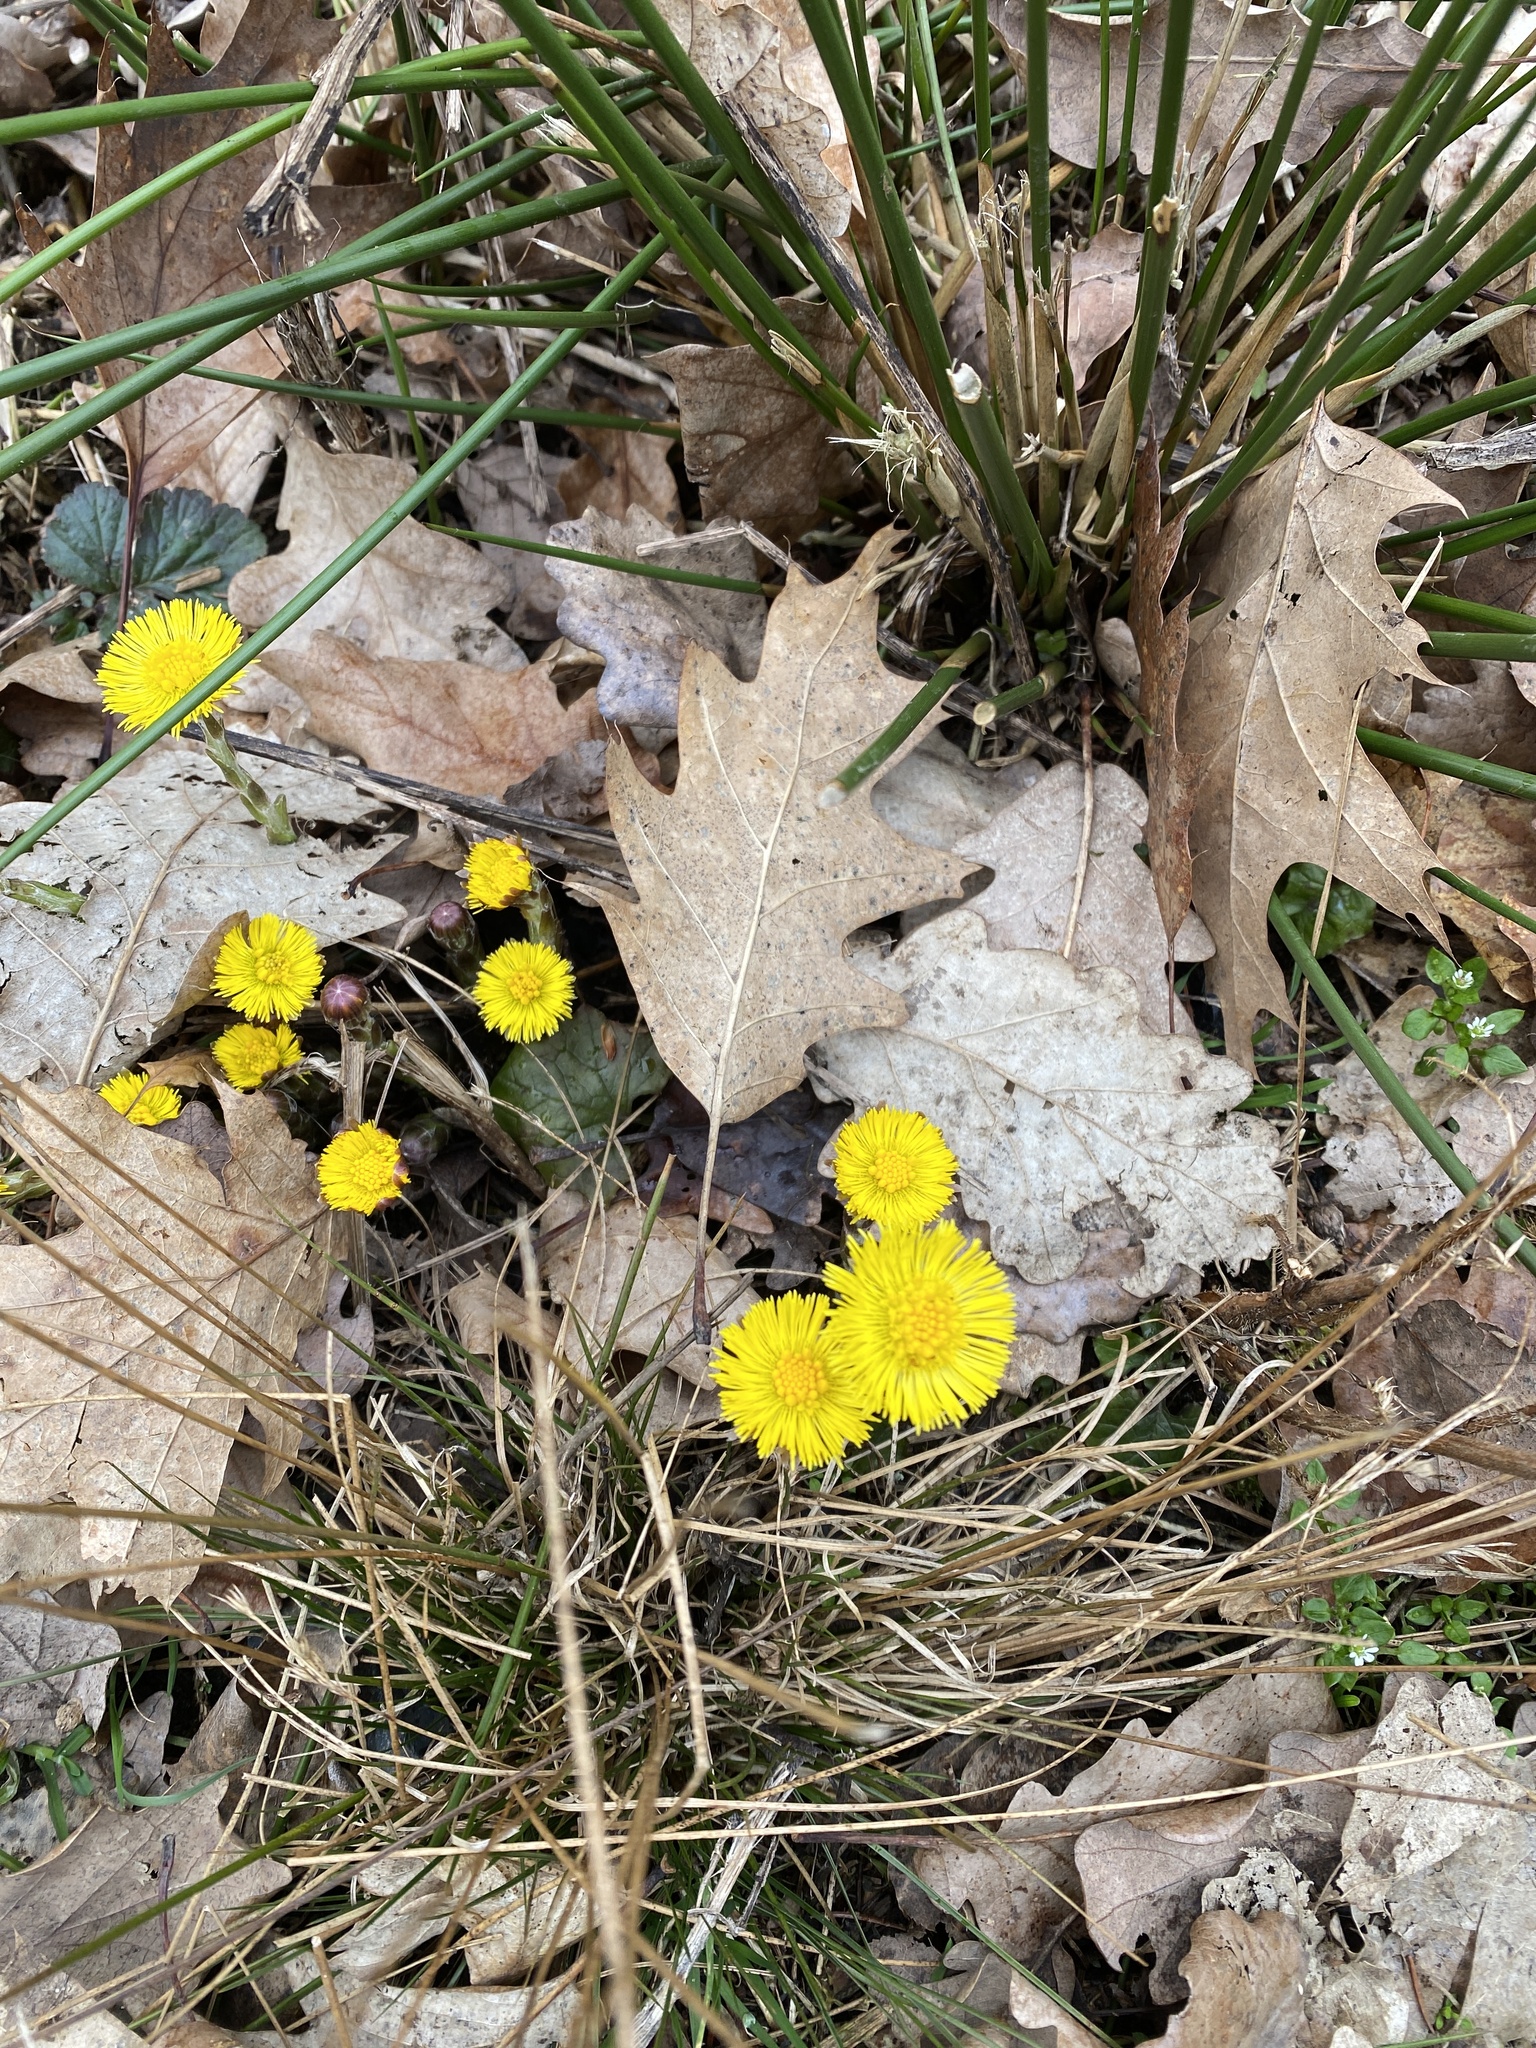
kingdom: Plantae
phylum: Tracheophyta
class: Magnoliopsida
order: Asterales
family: Asteraceae
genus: Tussilago
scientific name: Tussilago farfara
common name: Coltsfoot
